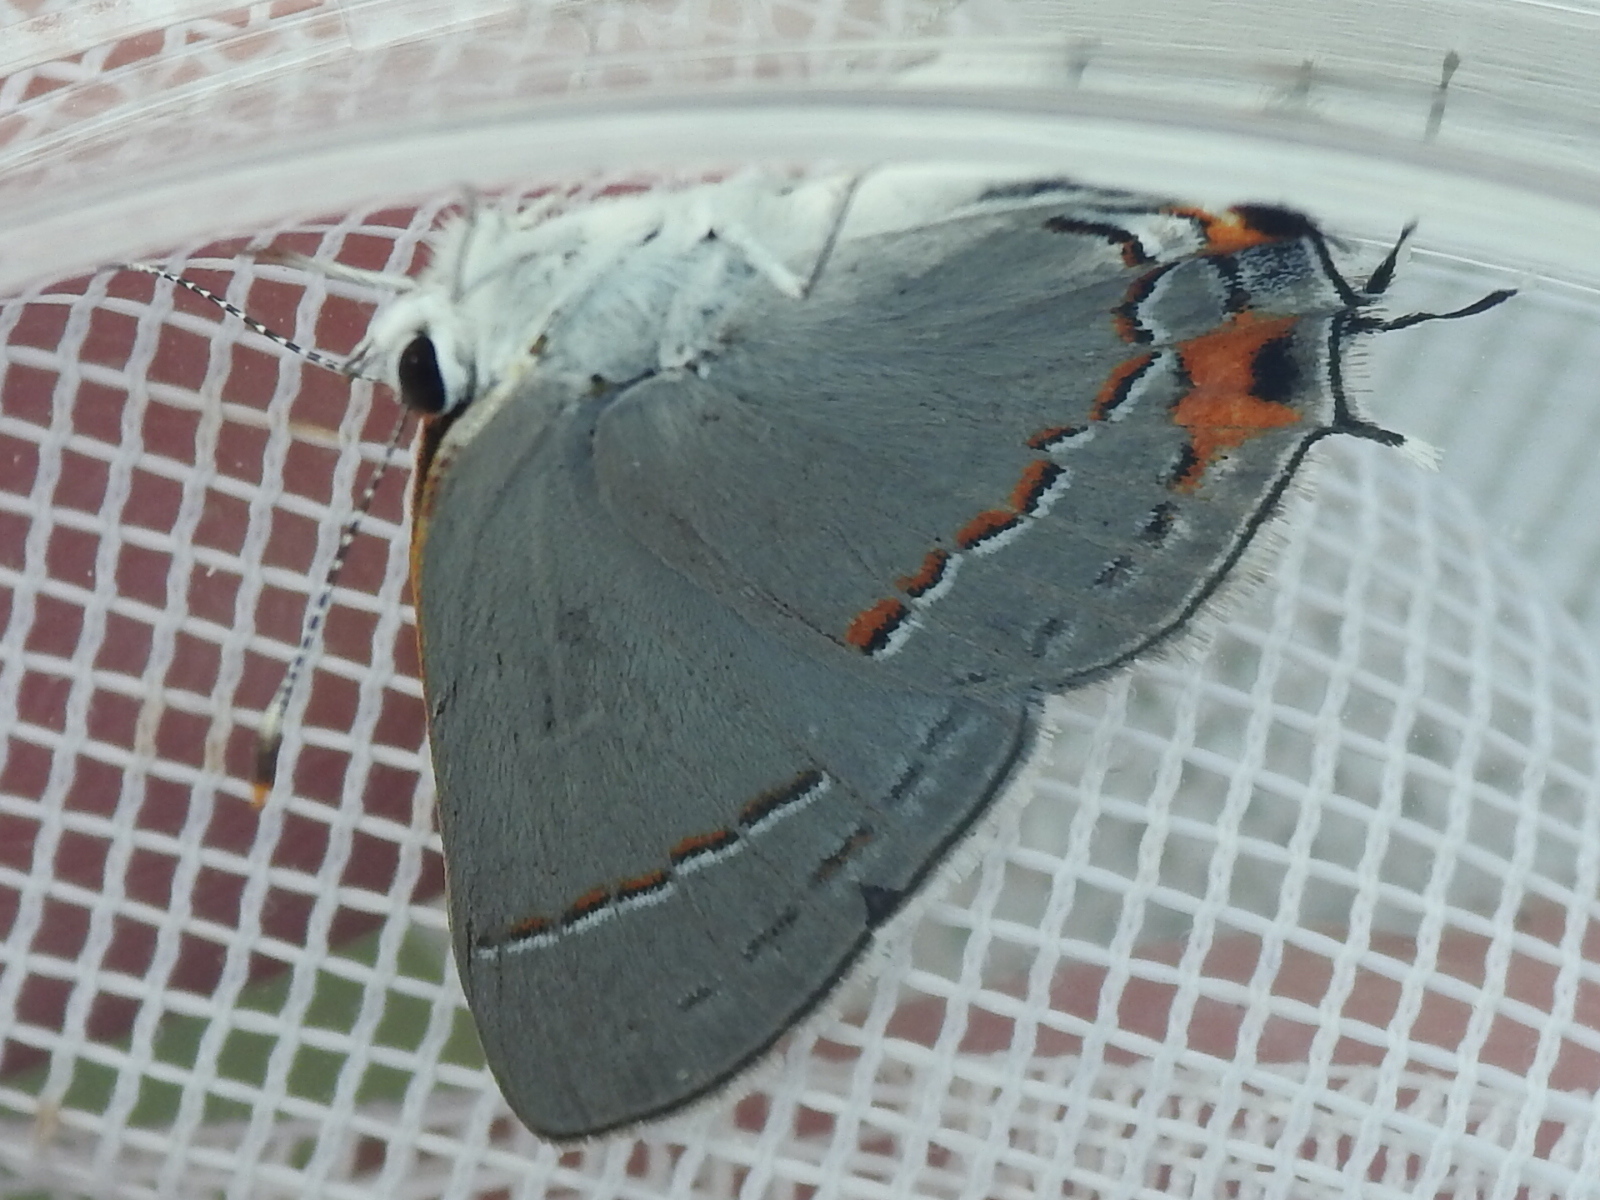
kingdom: Animalia
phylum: Arthropoda
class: Insecta
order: Lepidoptera
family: Lycaenidae
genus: Strymon
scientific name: Strymon melinus
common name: Gray hairstreak
